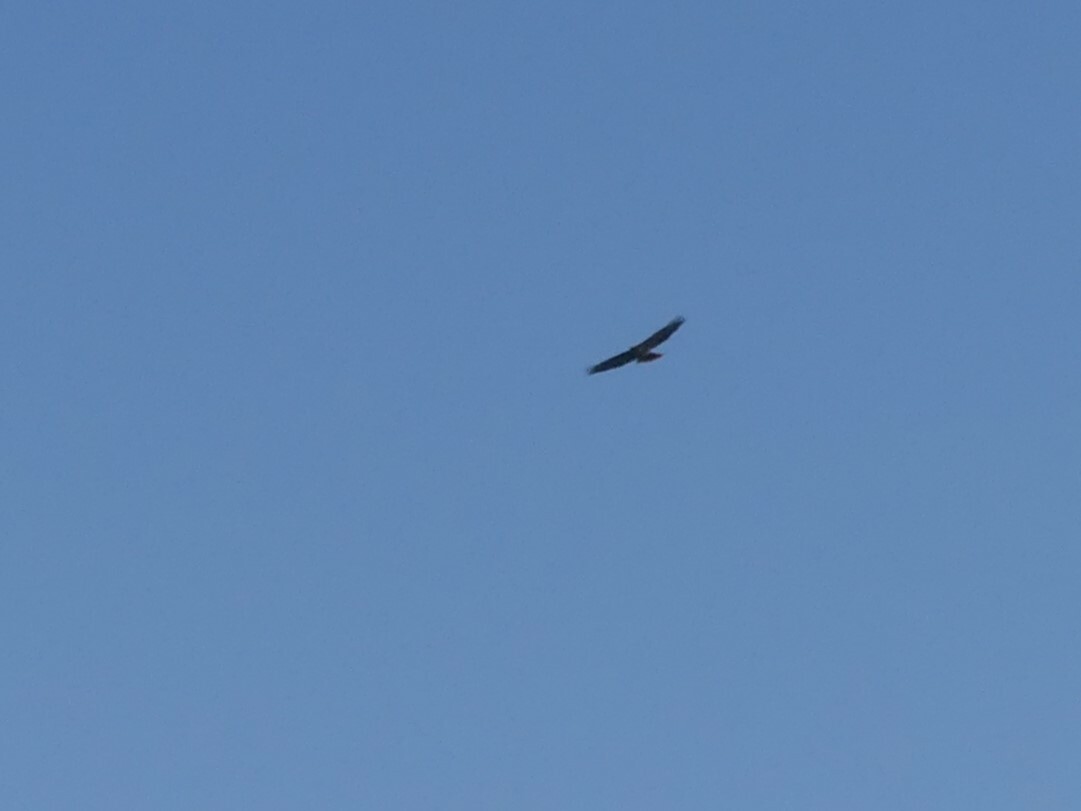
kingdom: Animalia
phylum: Chordata
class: Aves
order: Accipitriformes
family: Accipitridae
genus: Buteo
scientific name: Buteo jamaicensis
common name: Red-tailed hawk
